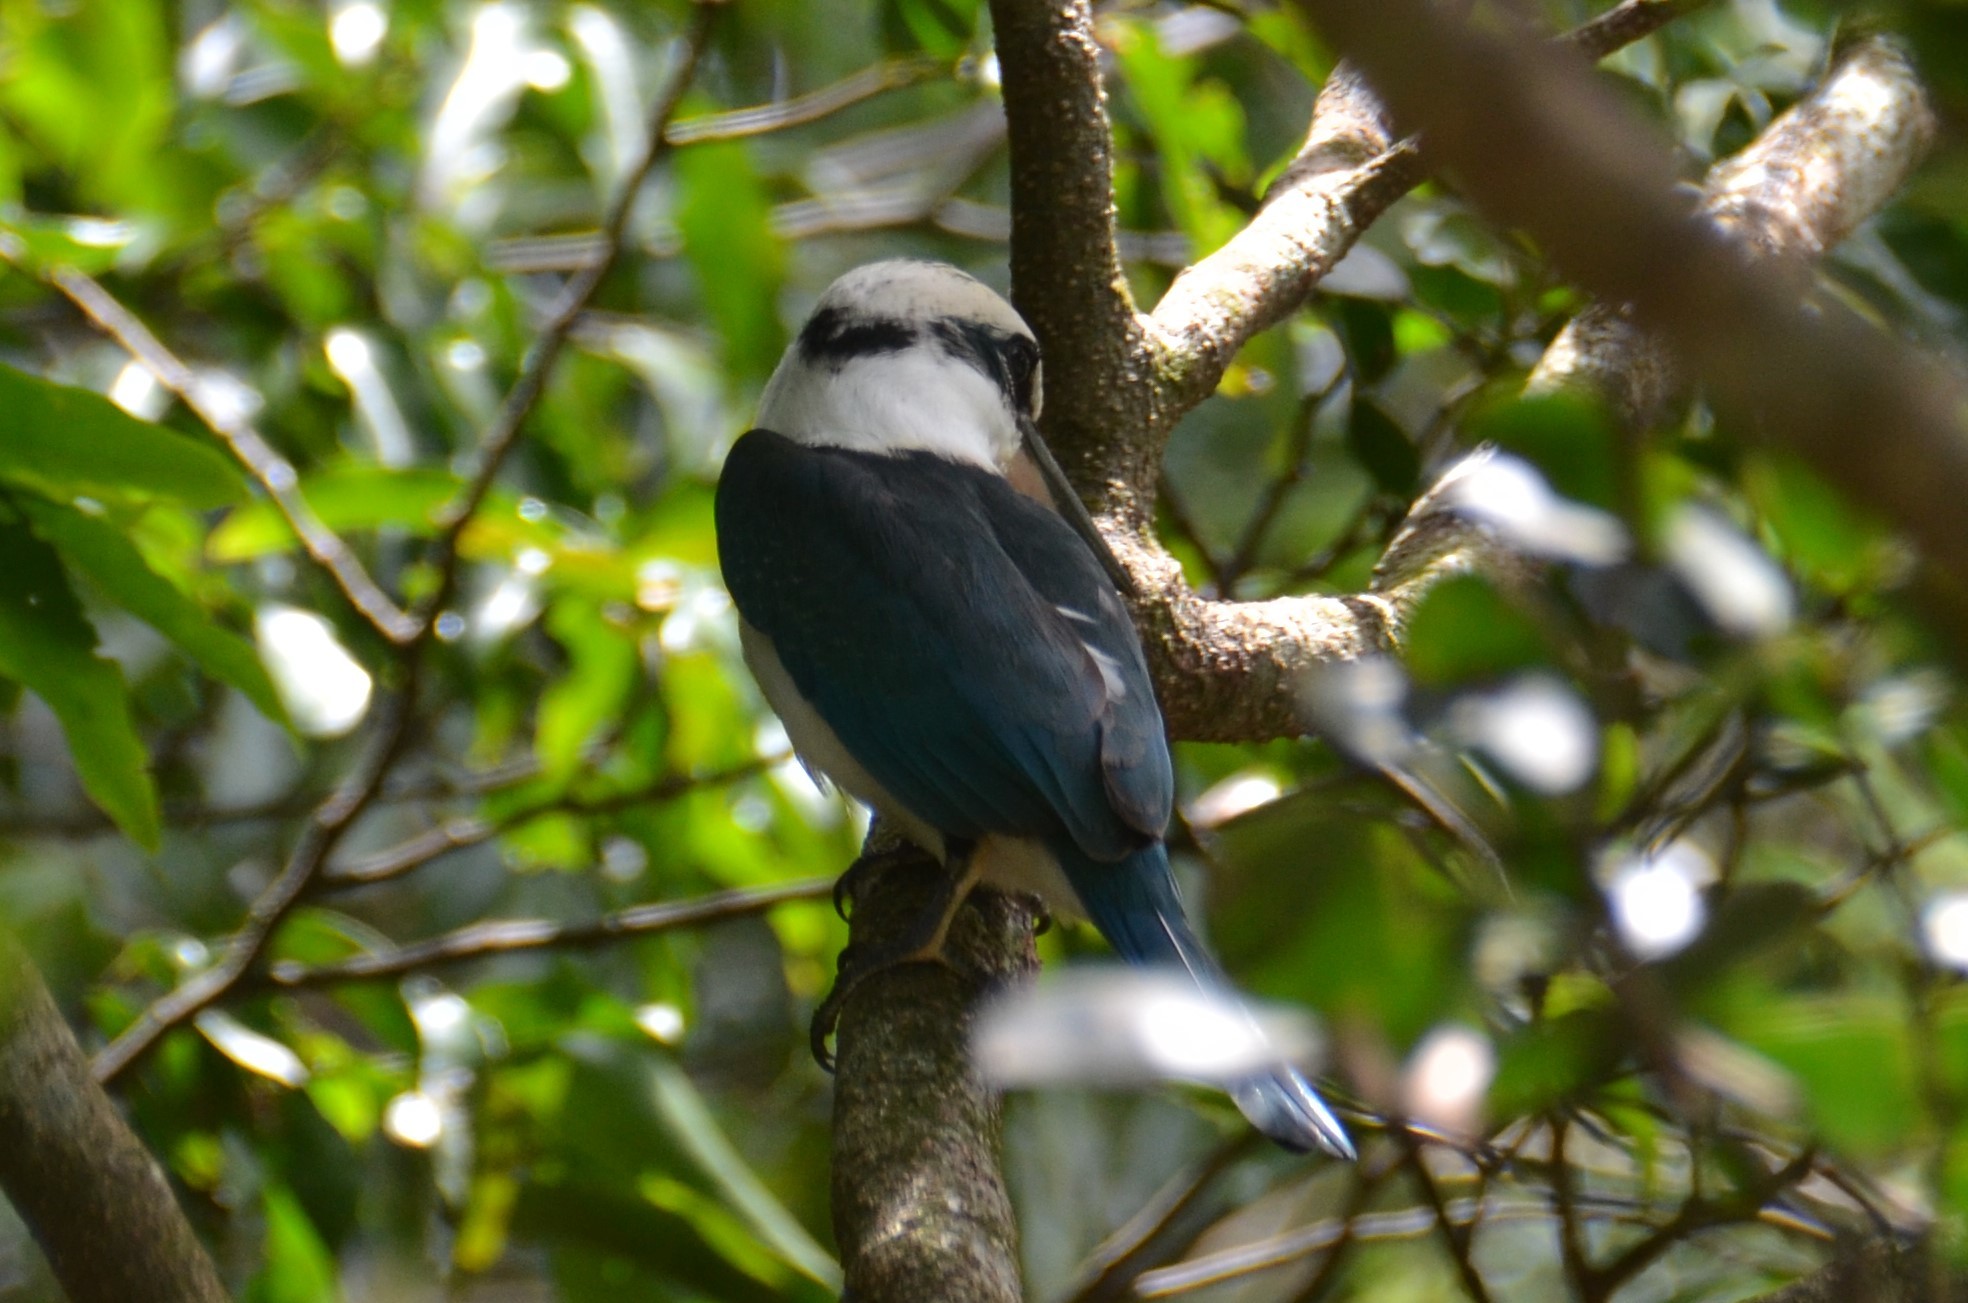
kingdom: Animalia
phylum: Chordata
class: Aves
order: Coraciiformes
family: Alcedinidae
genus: Todiramphus
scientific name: Todiramphus albicilla
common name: Mariana kingfisher
